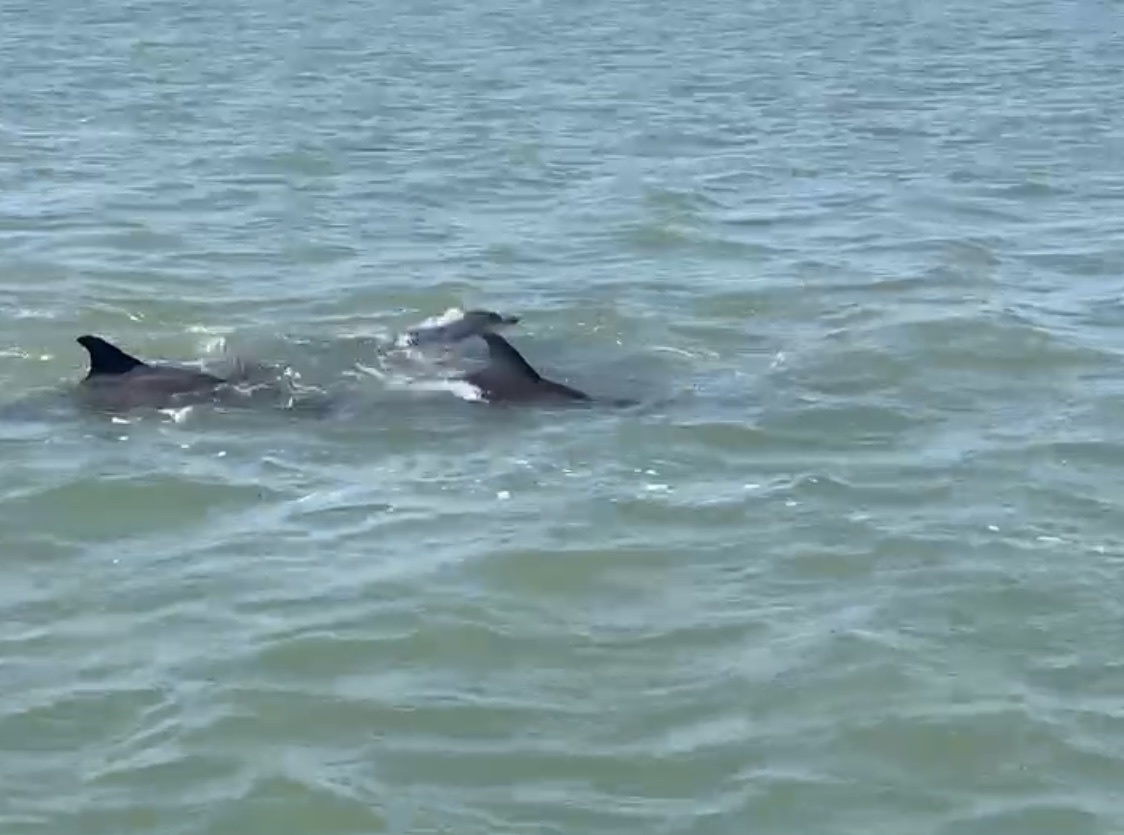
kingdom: Animalia
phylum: Chordata
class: Mammalia
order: Cetacea
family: Delphinidae
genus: Tursiops
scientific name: Tursiops truncatus
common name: Bottlenose dolphin
